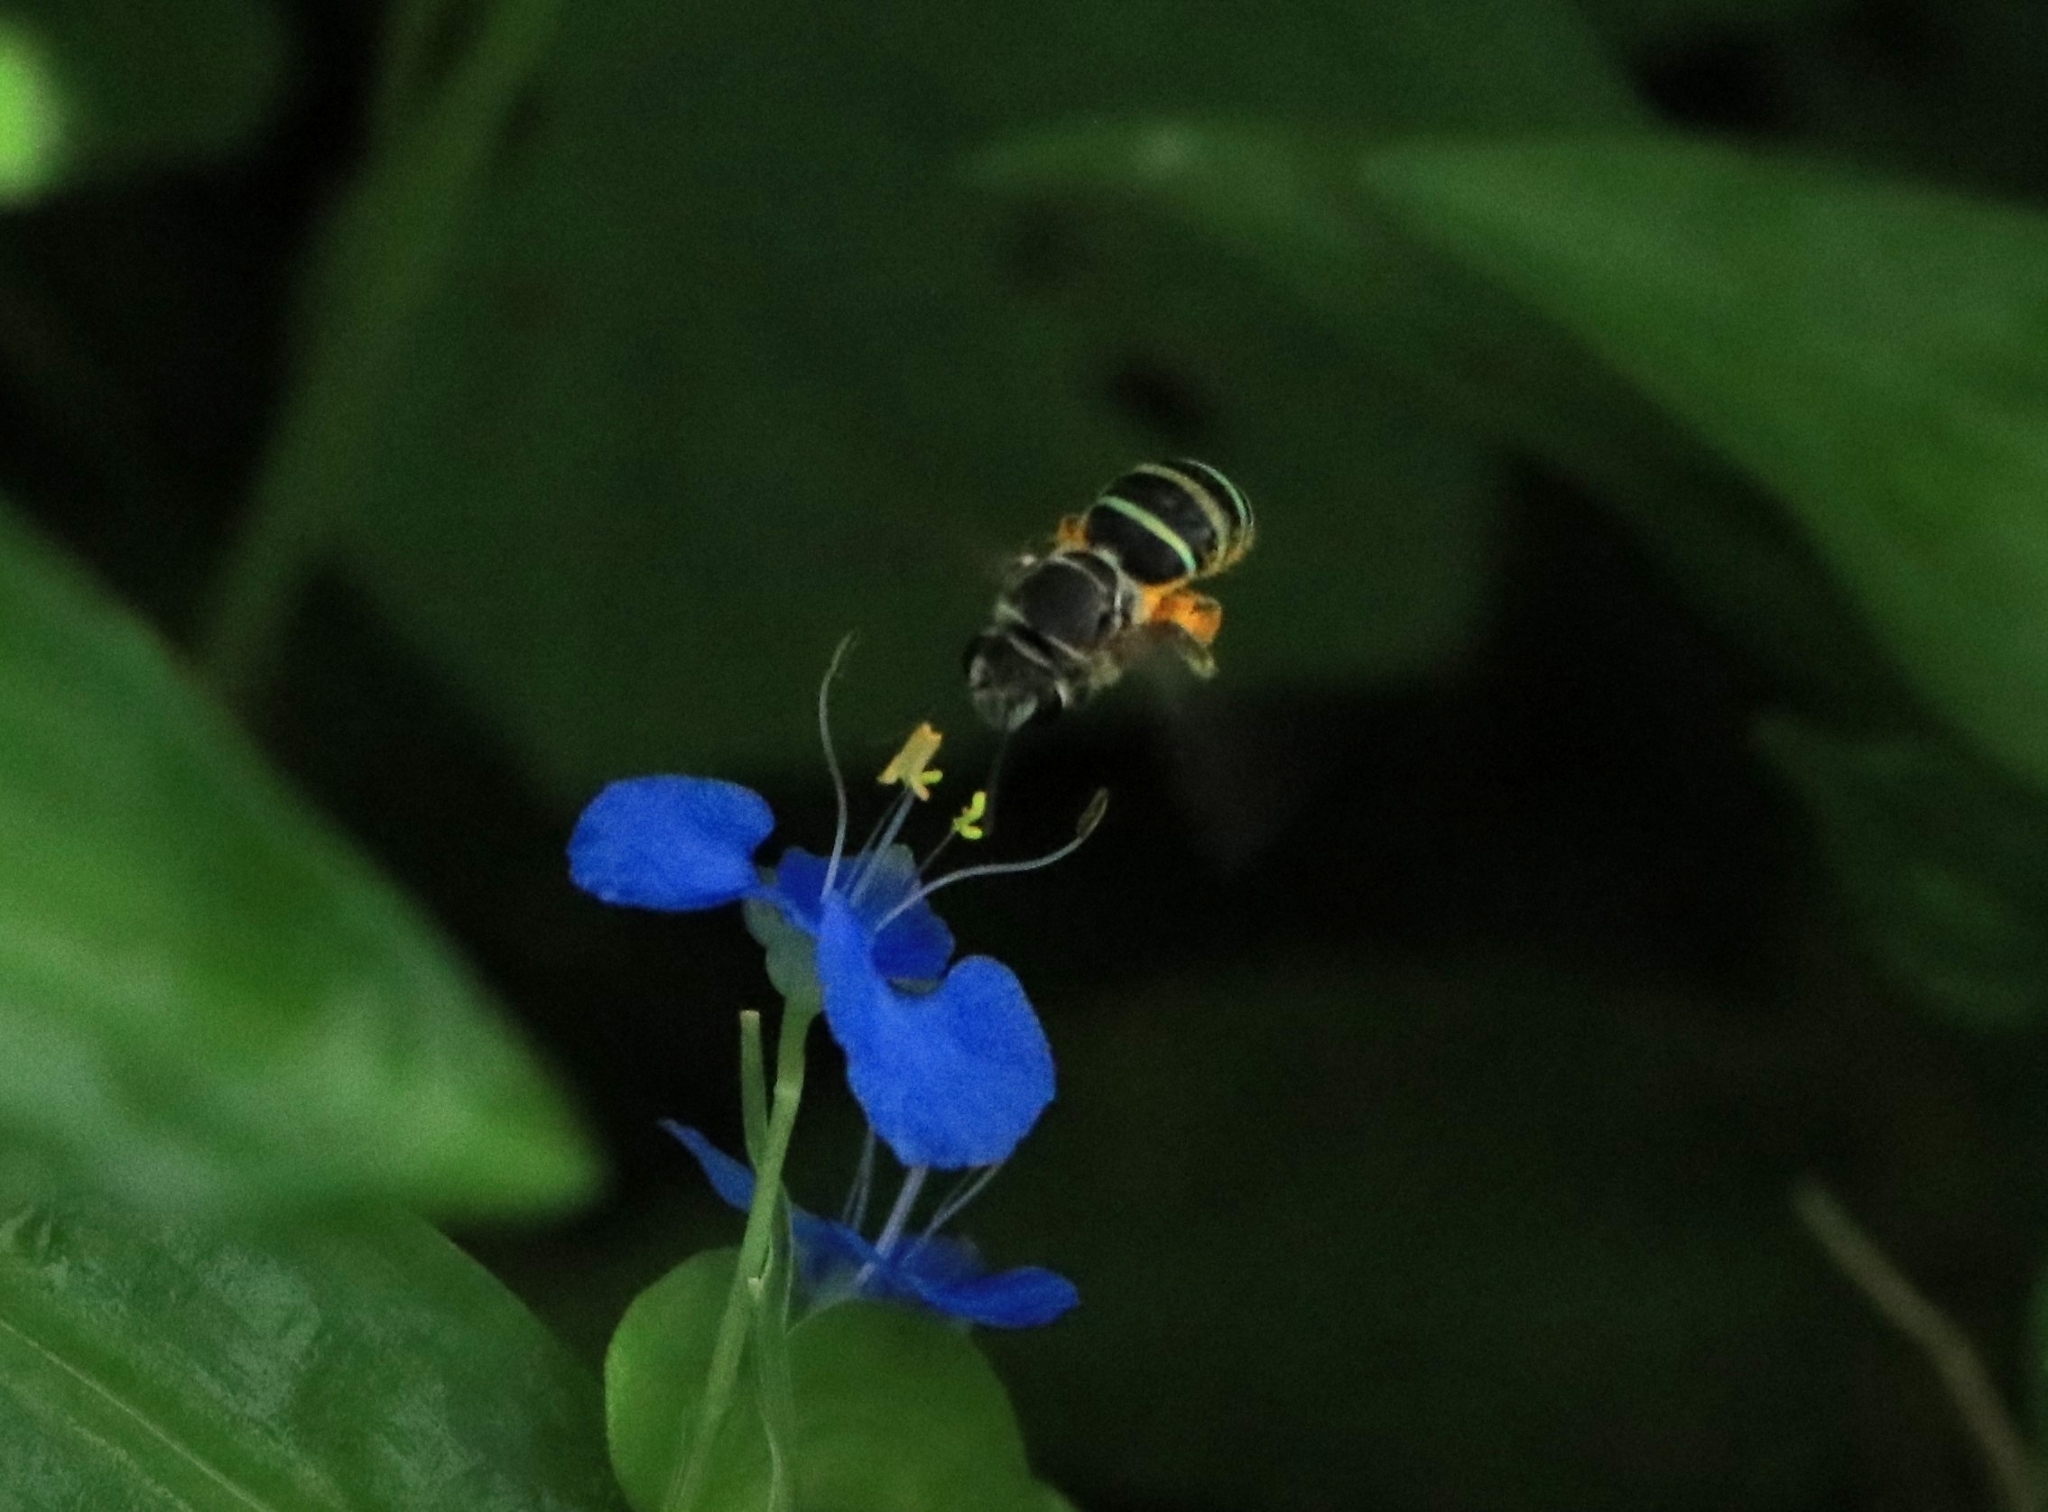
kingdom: Animalia
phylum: Arthropoda
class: Insecta
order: Hymenoptera
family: Halictidae
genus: Nomia
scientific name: Nomia westwoodi
